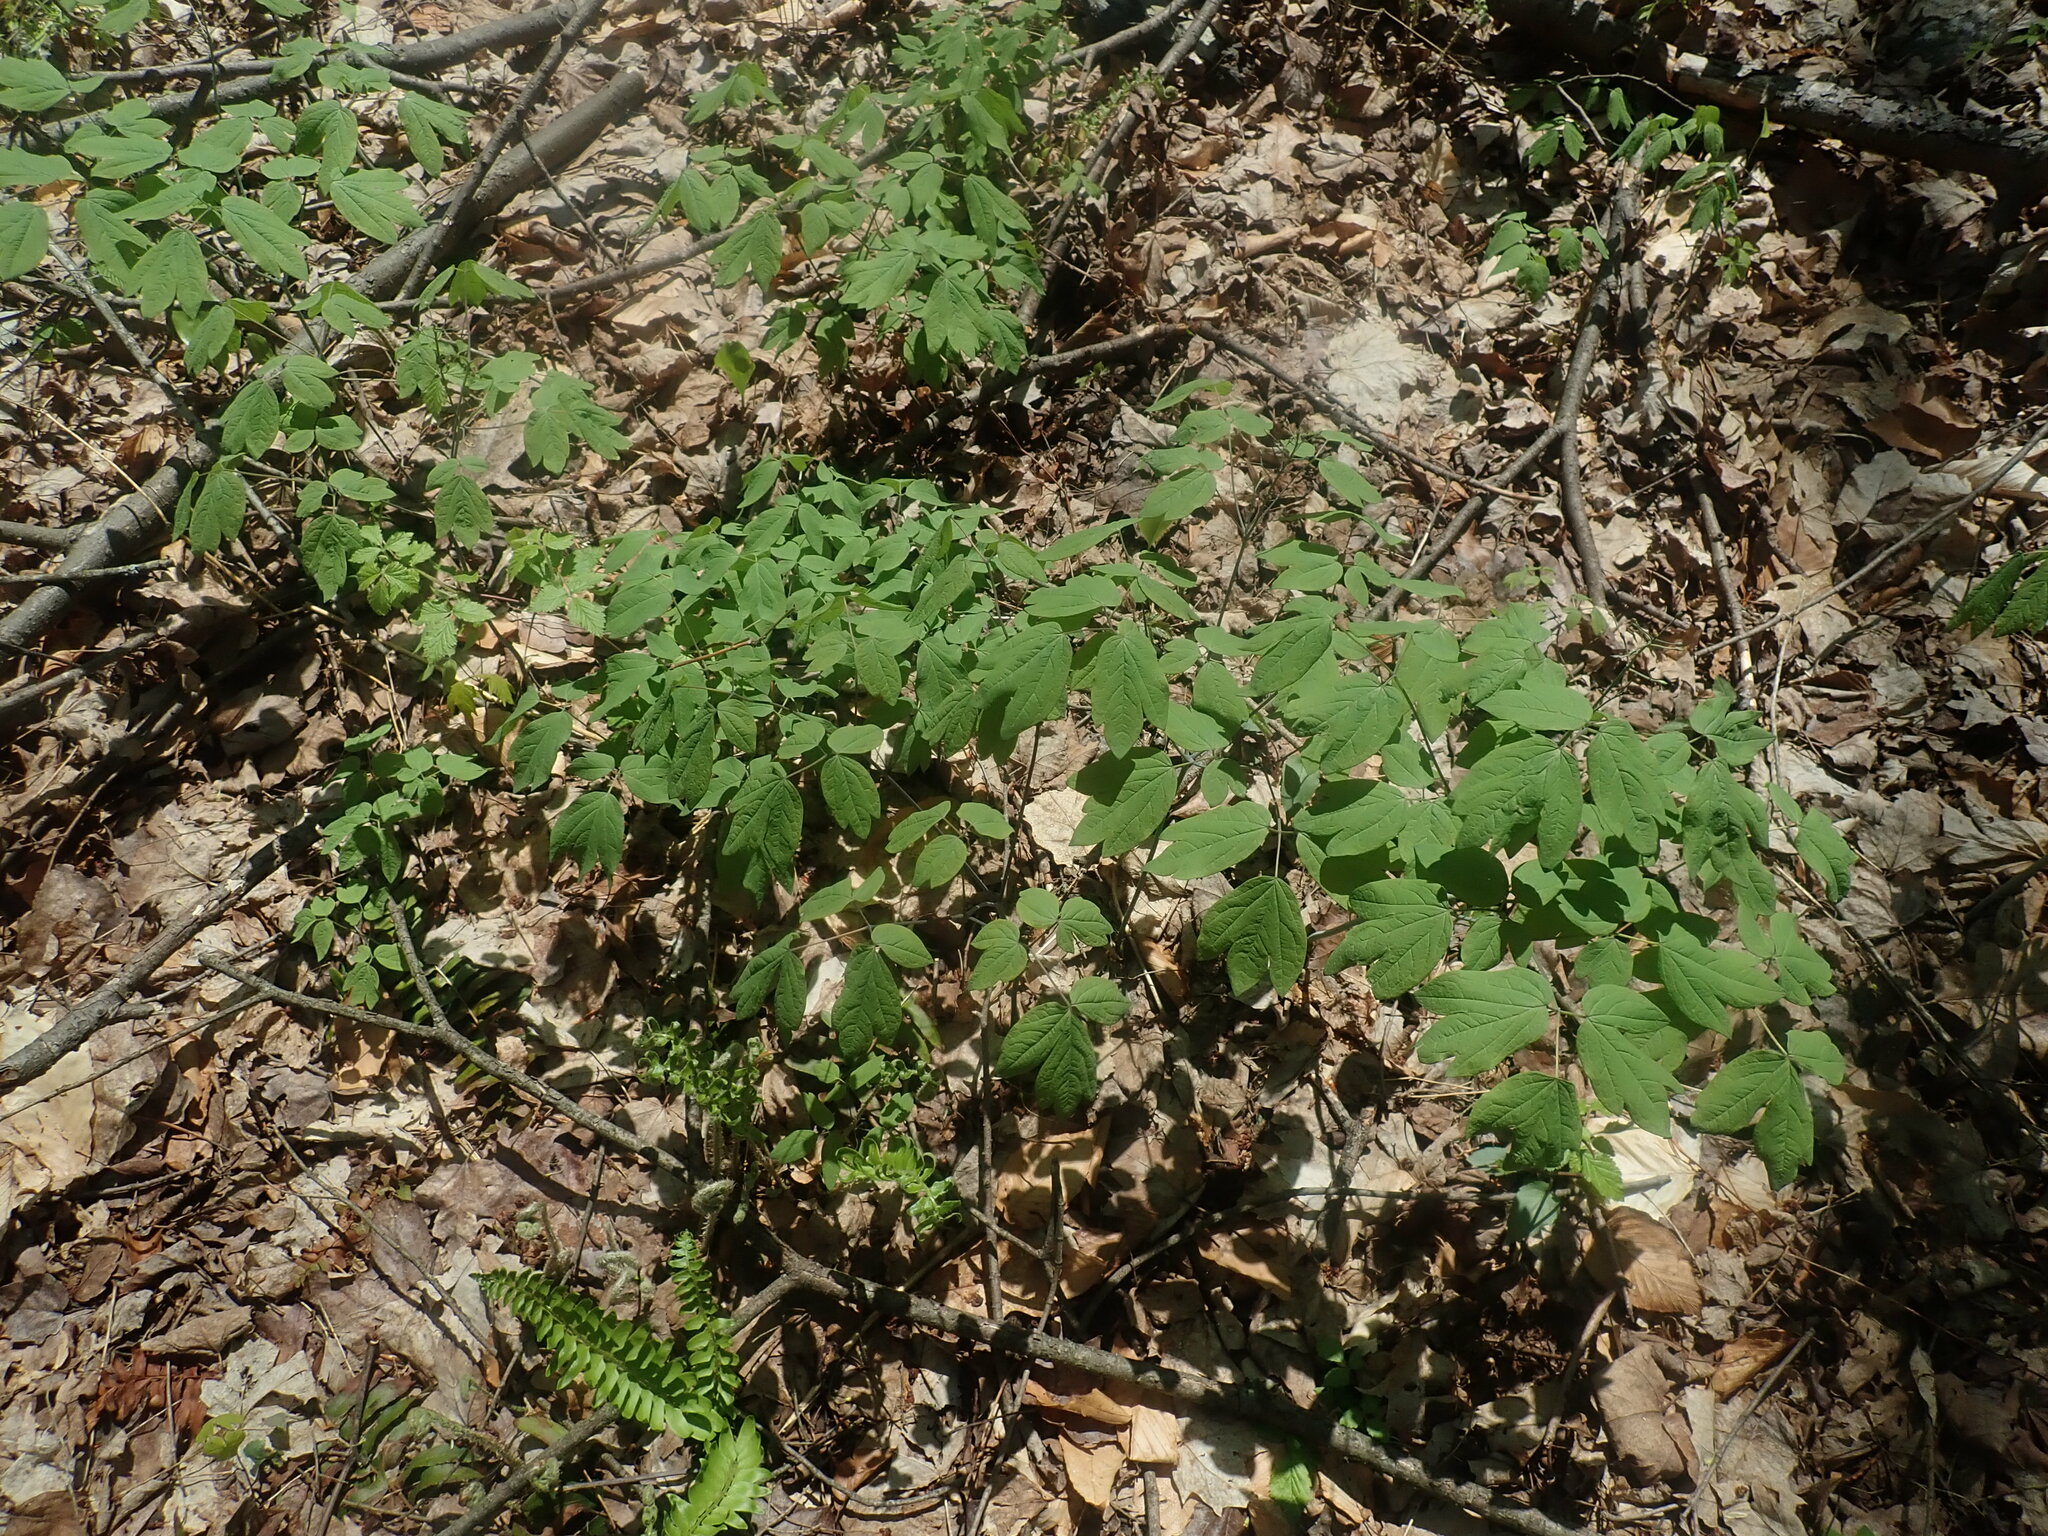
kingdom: Plantae
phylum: Tracheophyta
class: Magnoliopsida
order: Ranunculales
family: Berberidaceae
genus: Caulophyllum
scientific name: Caulophyllum
